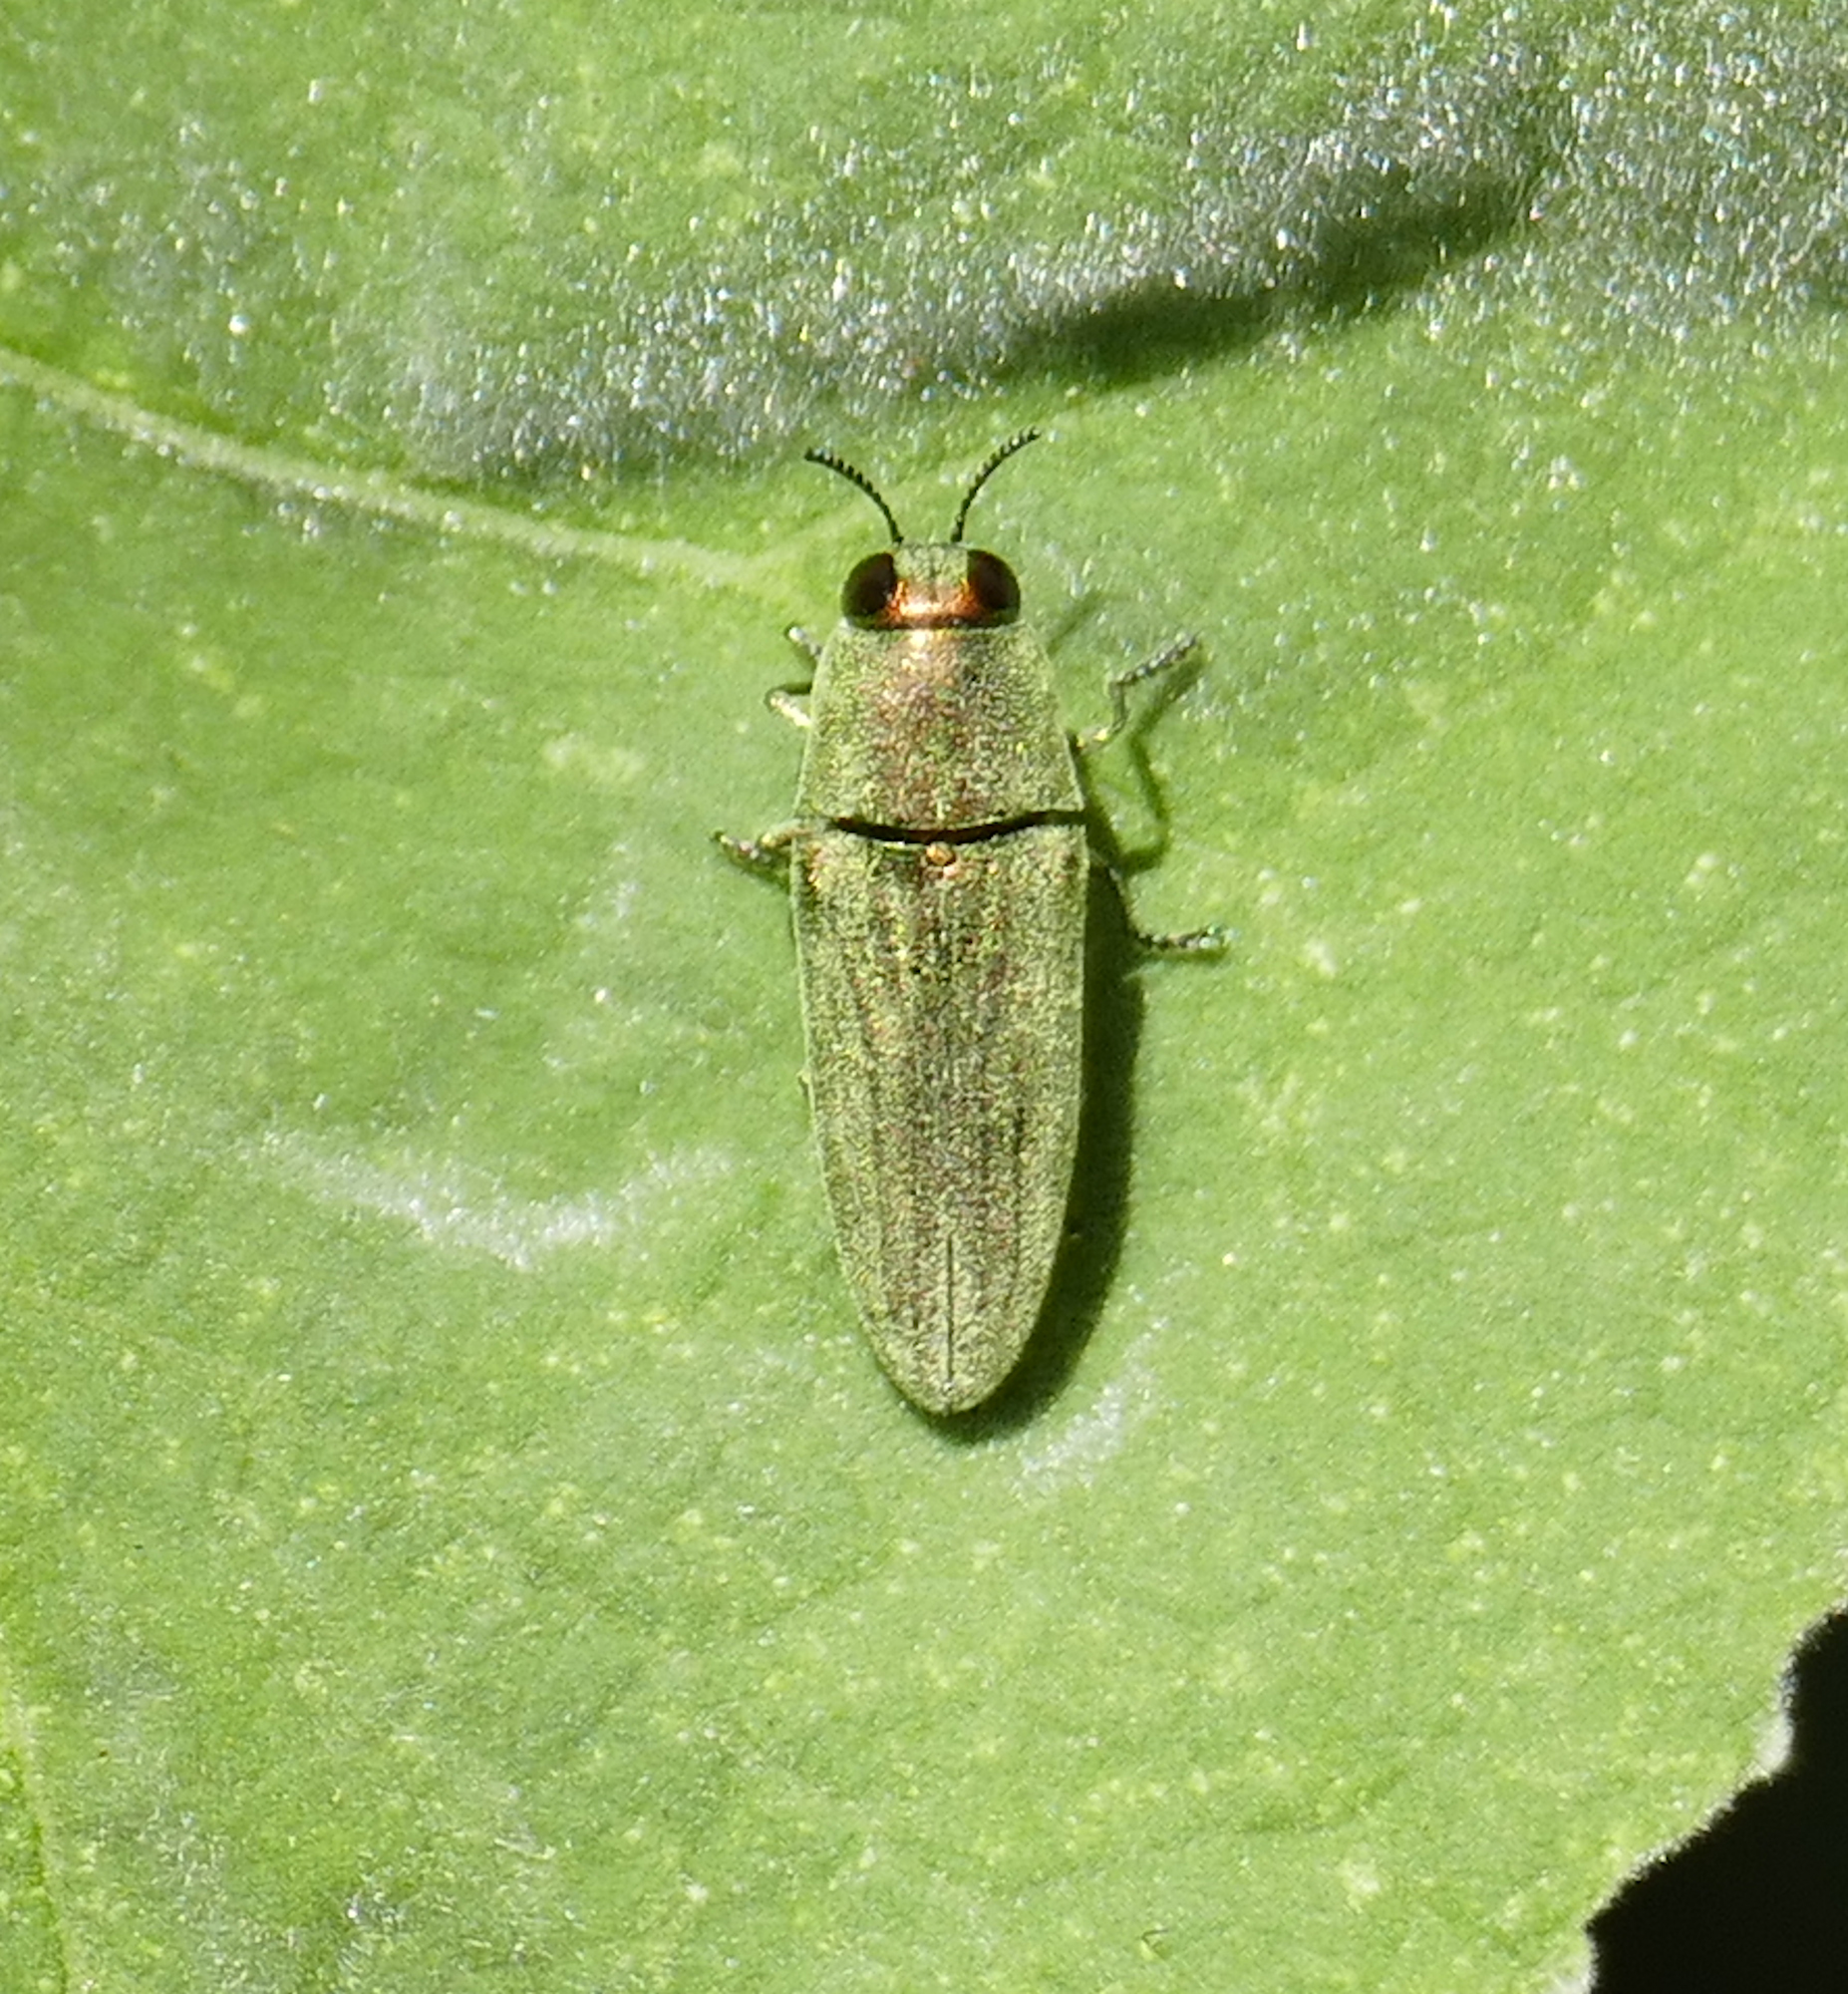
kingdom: Animalia
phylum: Arthropoda
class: Insecta
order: Coleoptera
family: Buprestidae
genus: Agaeocera
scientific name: Agaeocera scintillans
